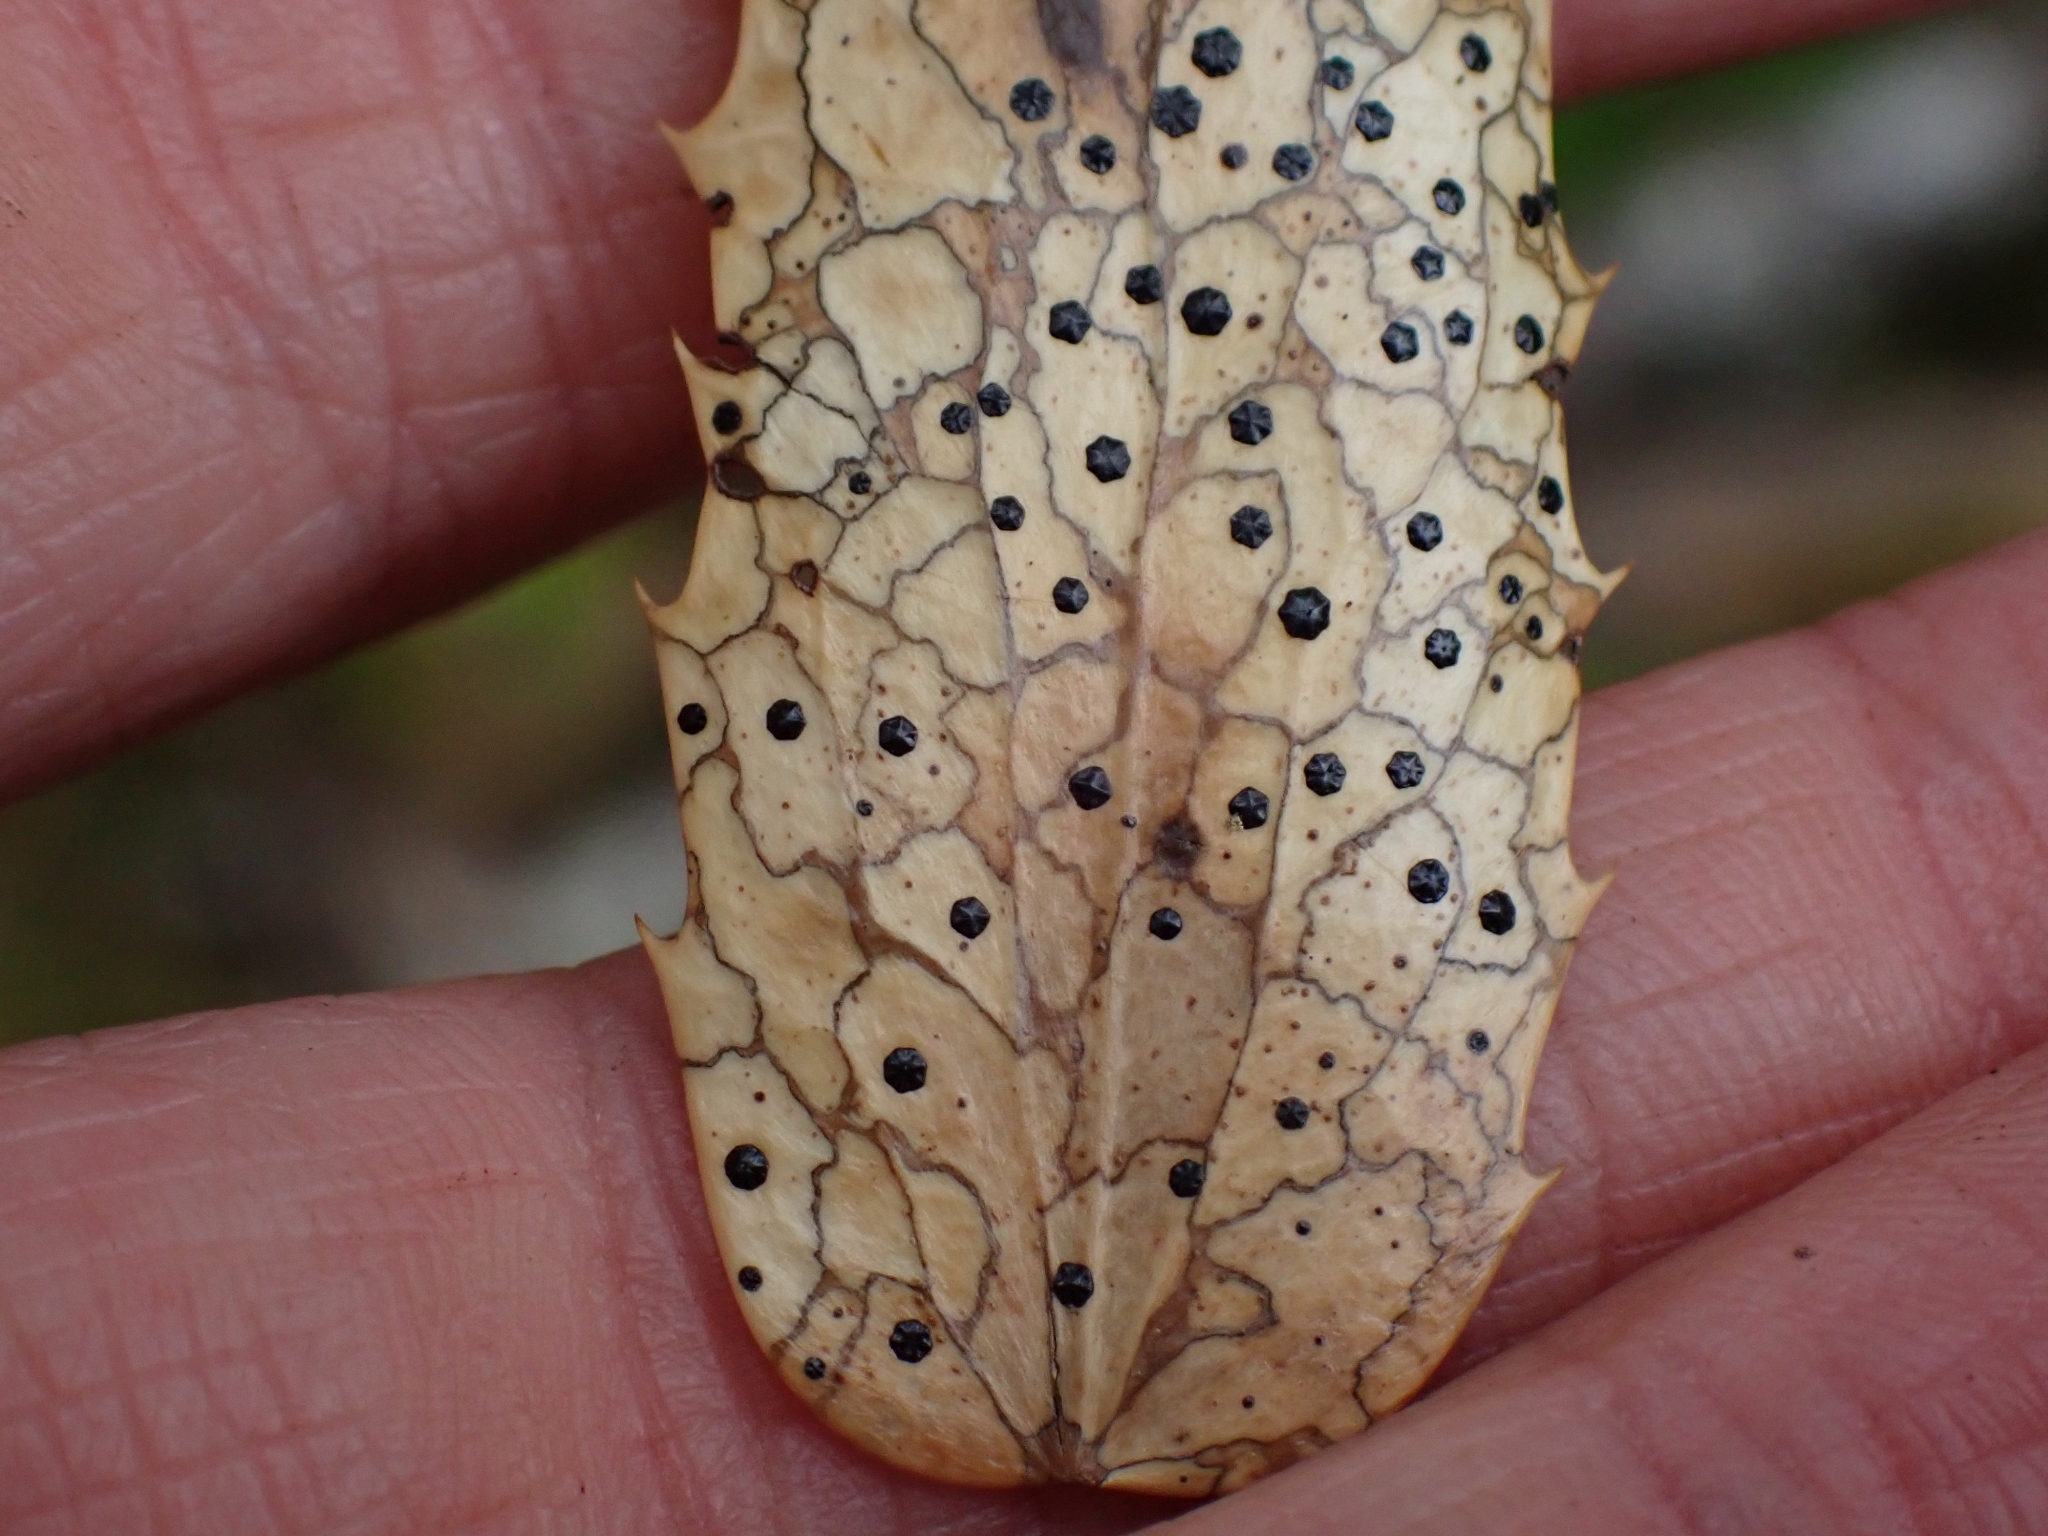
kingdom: Fungi
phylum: Ascomycota
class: Leotiomycetes
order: Rhytismatales
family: Rhytismataceae
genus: Coccomyces
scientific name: Coccomyces dentatus
